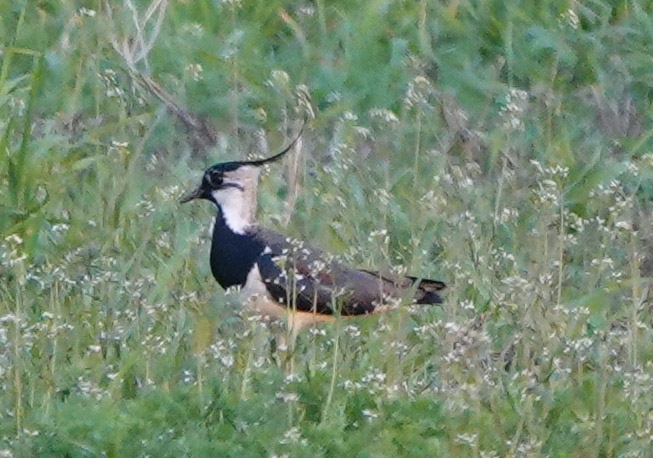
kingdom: Animalia
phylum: Chordata
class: Aves
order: Charadriiformes
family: Charadriidae
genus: Vanellus
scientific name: Vanellus vanellus
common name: Northern lapwing
